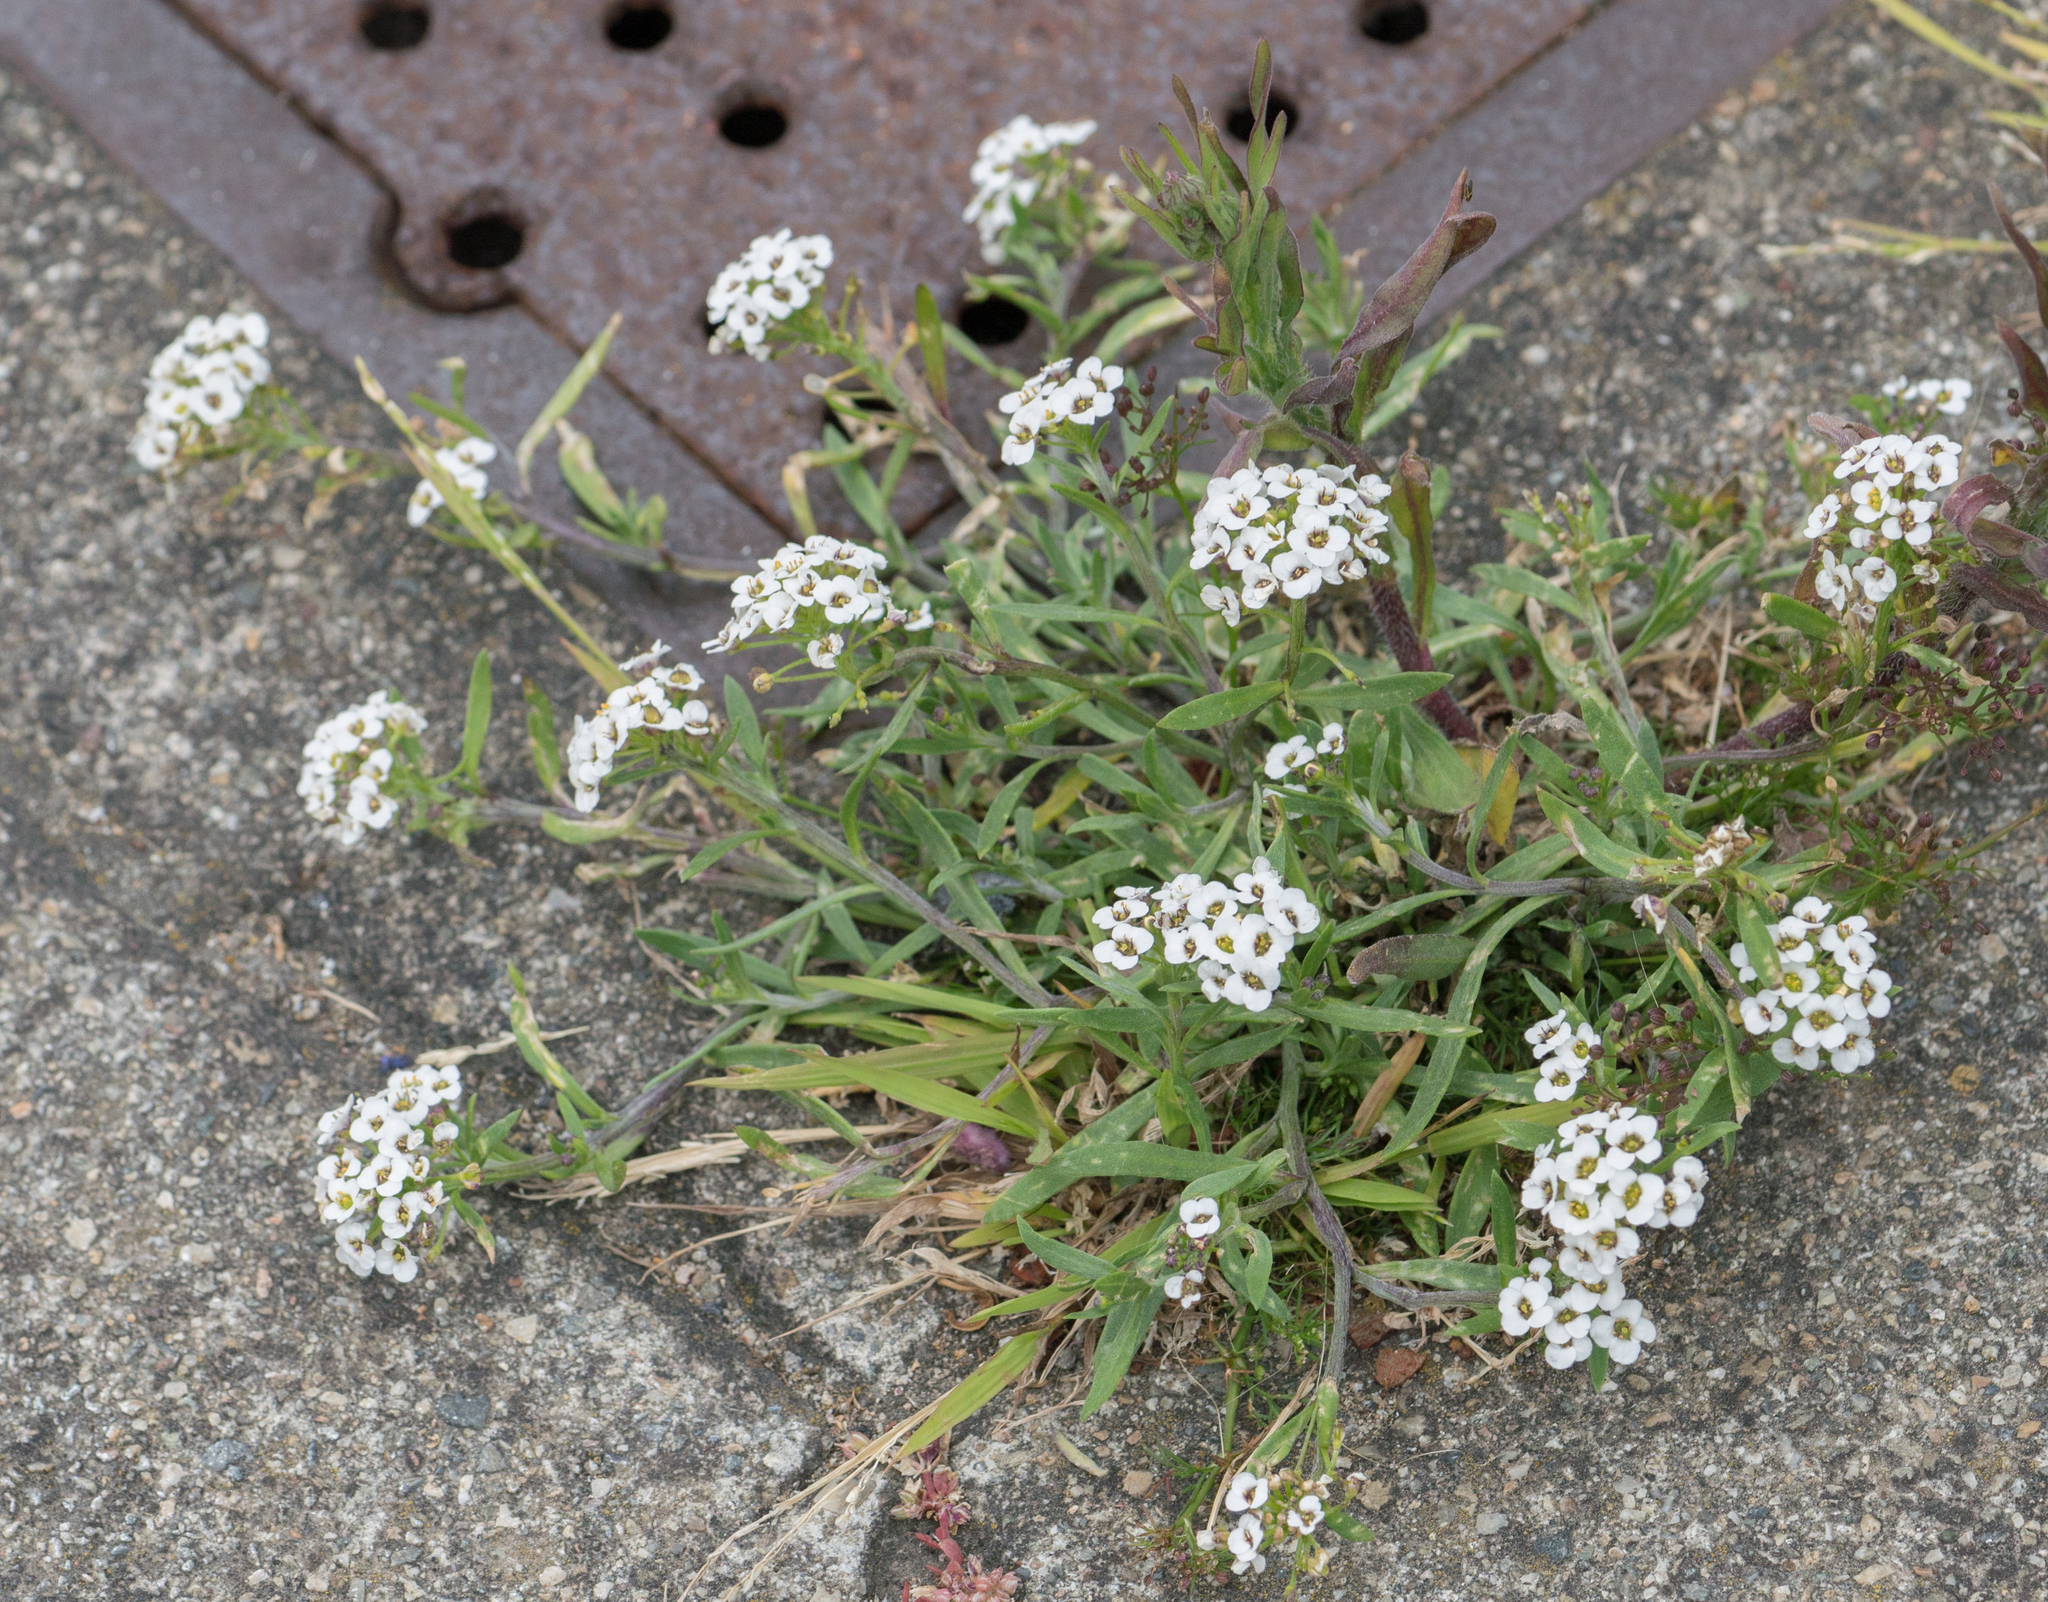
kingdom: Plantae
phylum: Tracheophyta
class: Magnoliopsida
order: Brassicales
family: Brassicaceae
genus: Lobularia
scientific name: Lobularia maritima
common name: Sweet alison
